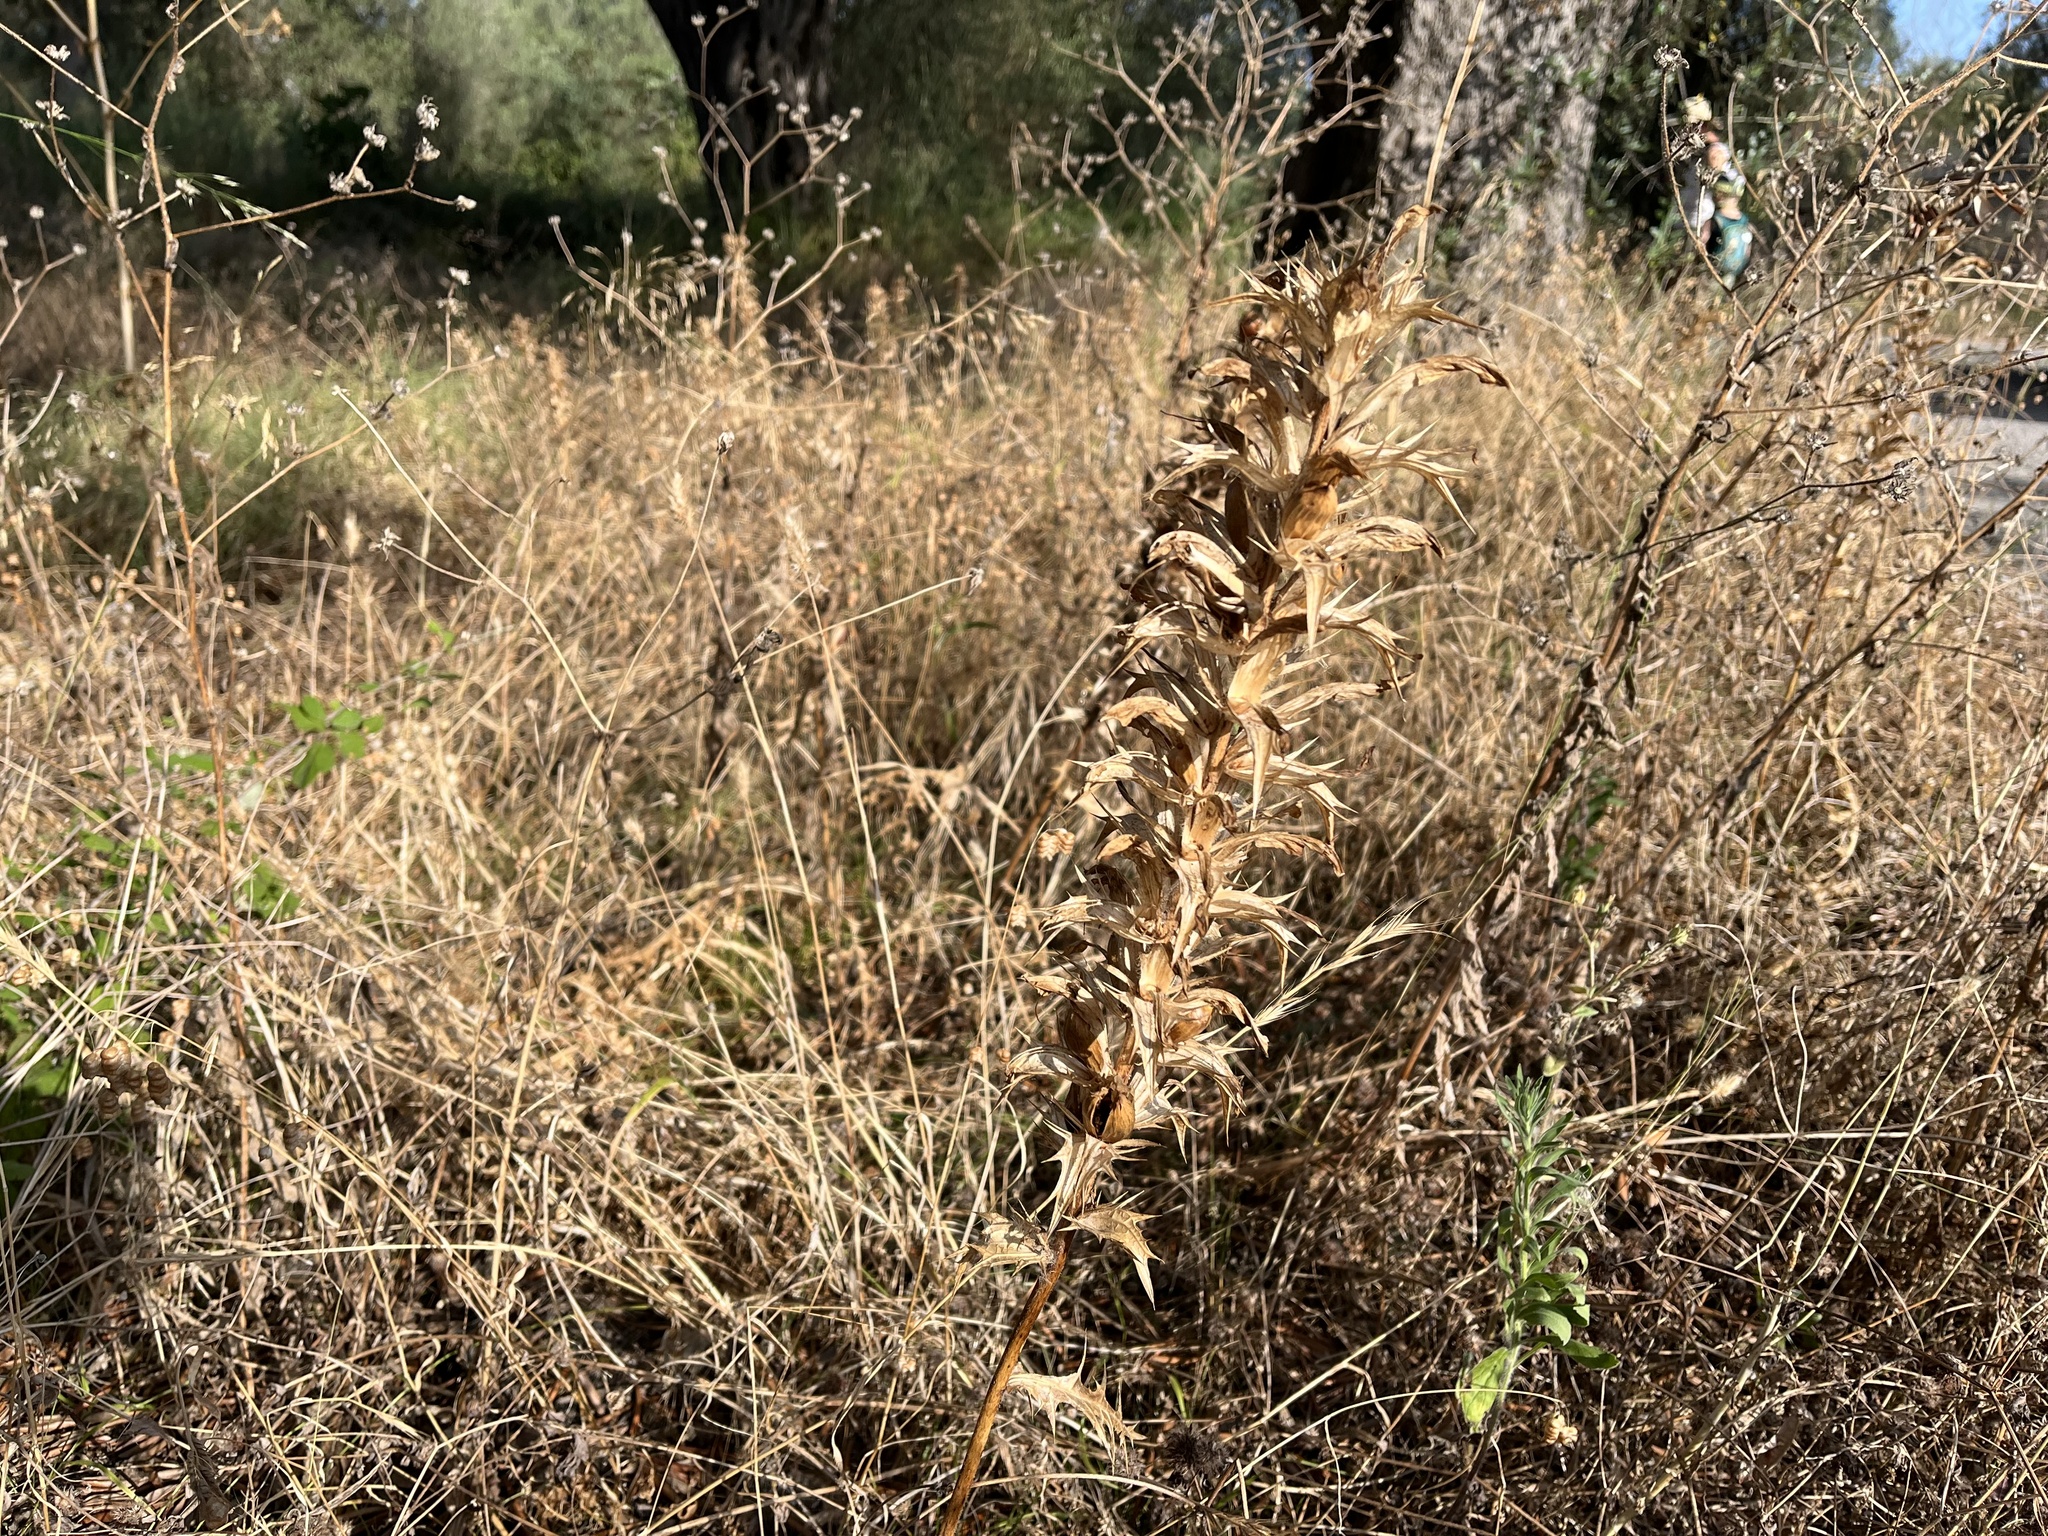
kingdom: Plantae
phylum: Tracheophyta
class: Magnoliopsida
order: Lamiales
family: Acanthaceae
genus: Acanthus
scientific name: Acanthus spinosus
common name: Spiny bear's-breech
